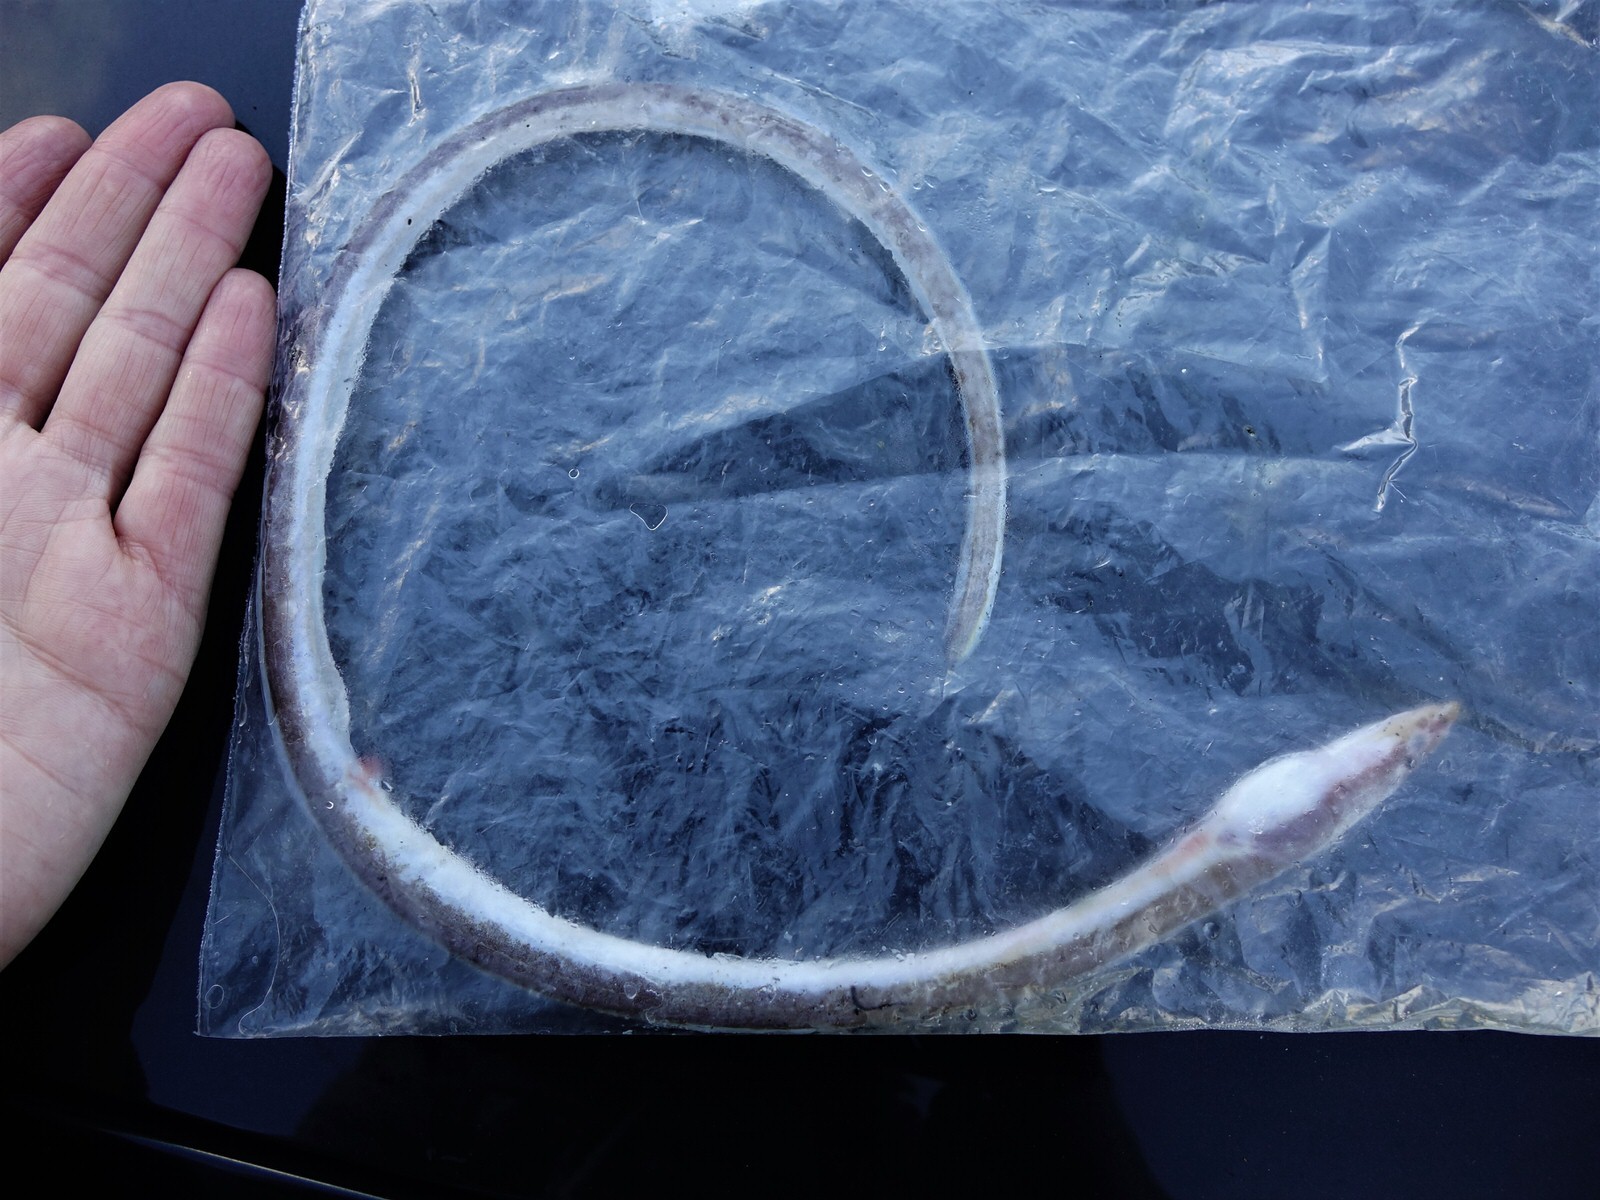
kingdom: Animalia
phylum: Chordata
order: Anguilliformes
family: Ophichthidae
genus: Scolecenchelys
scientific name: Scolecenchelys breviceps
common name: Big-eyed worm eel
